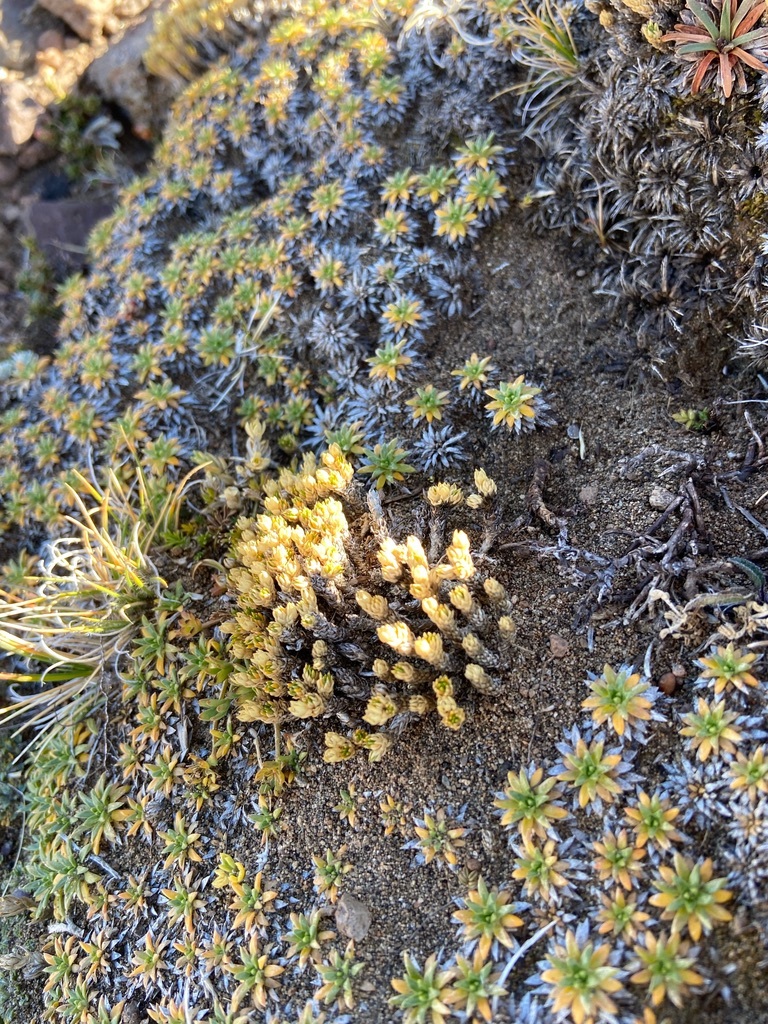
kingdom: Plantae
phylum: Tracheophyta
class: Magnoliopsida
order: Caryophyllales
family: Caryophyllaceae
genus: Colobanthus
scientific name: Colobanthus lycopodioides
